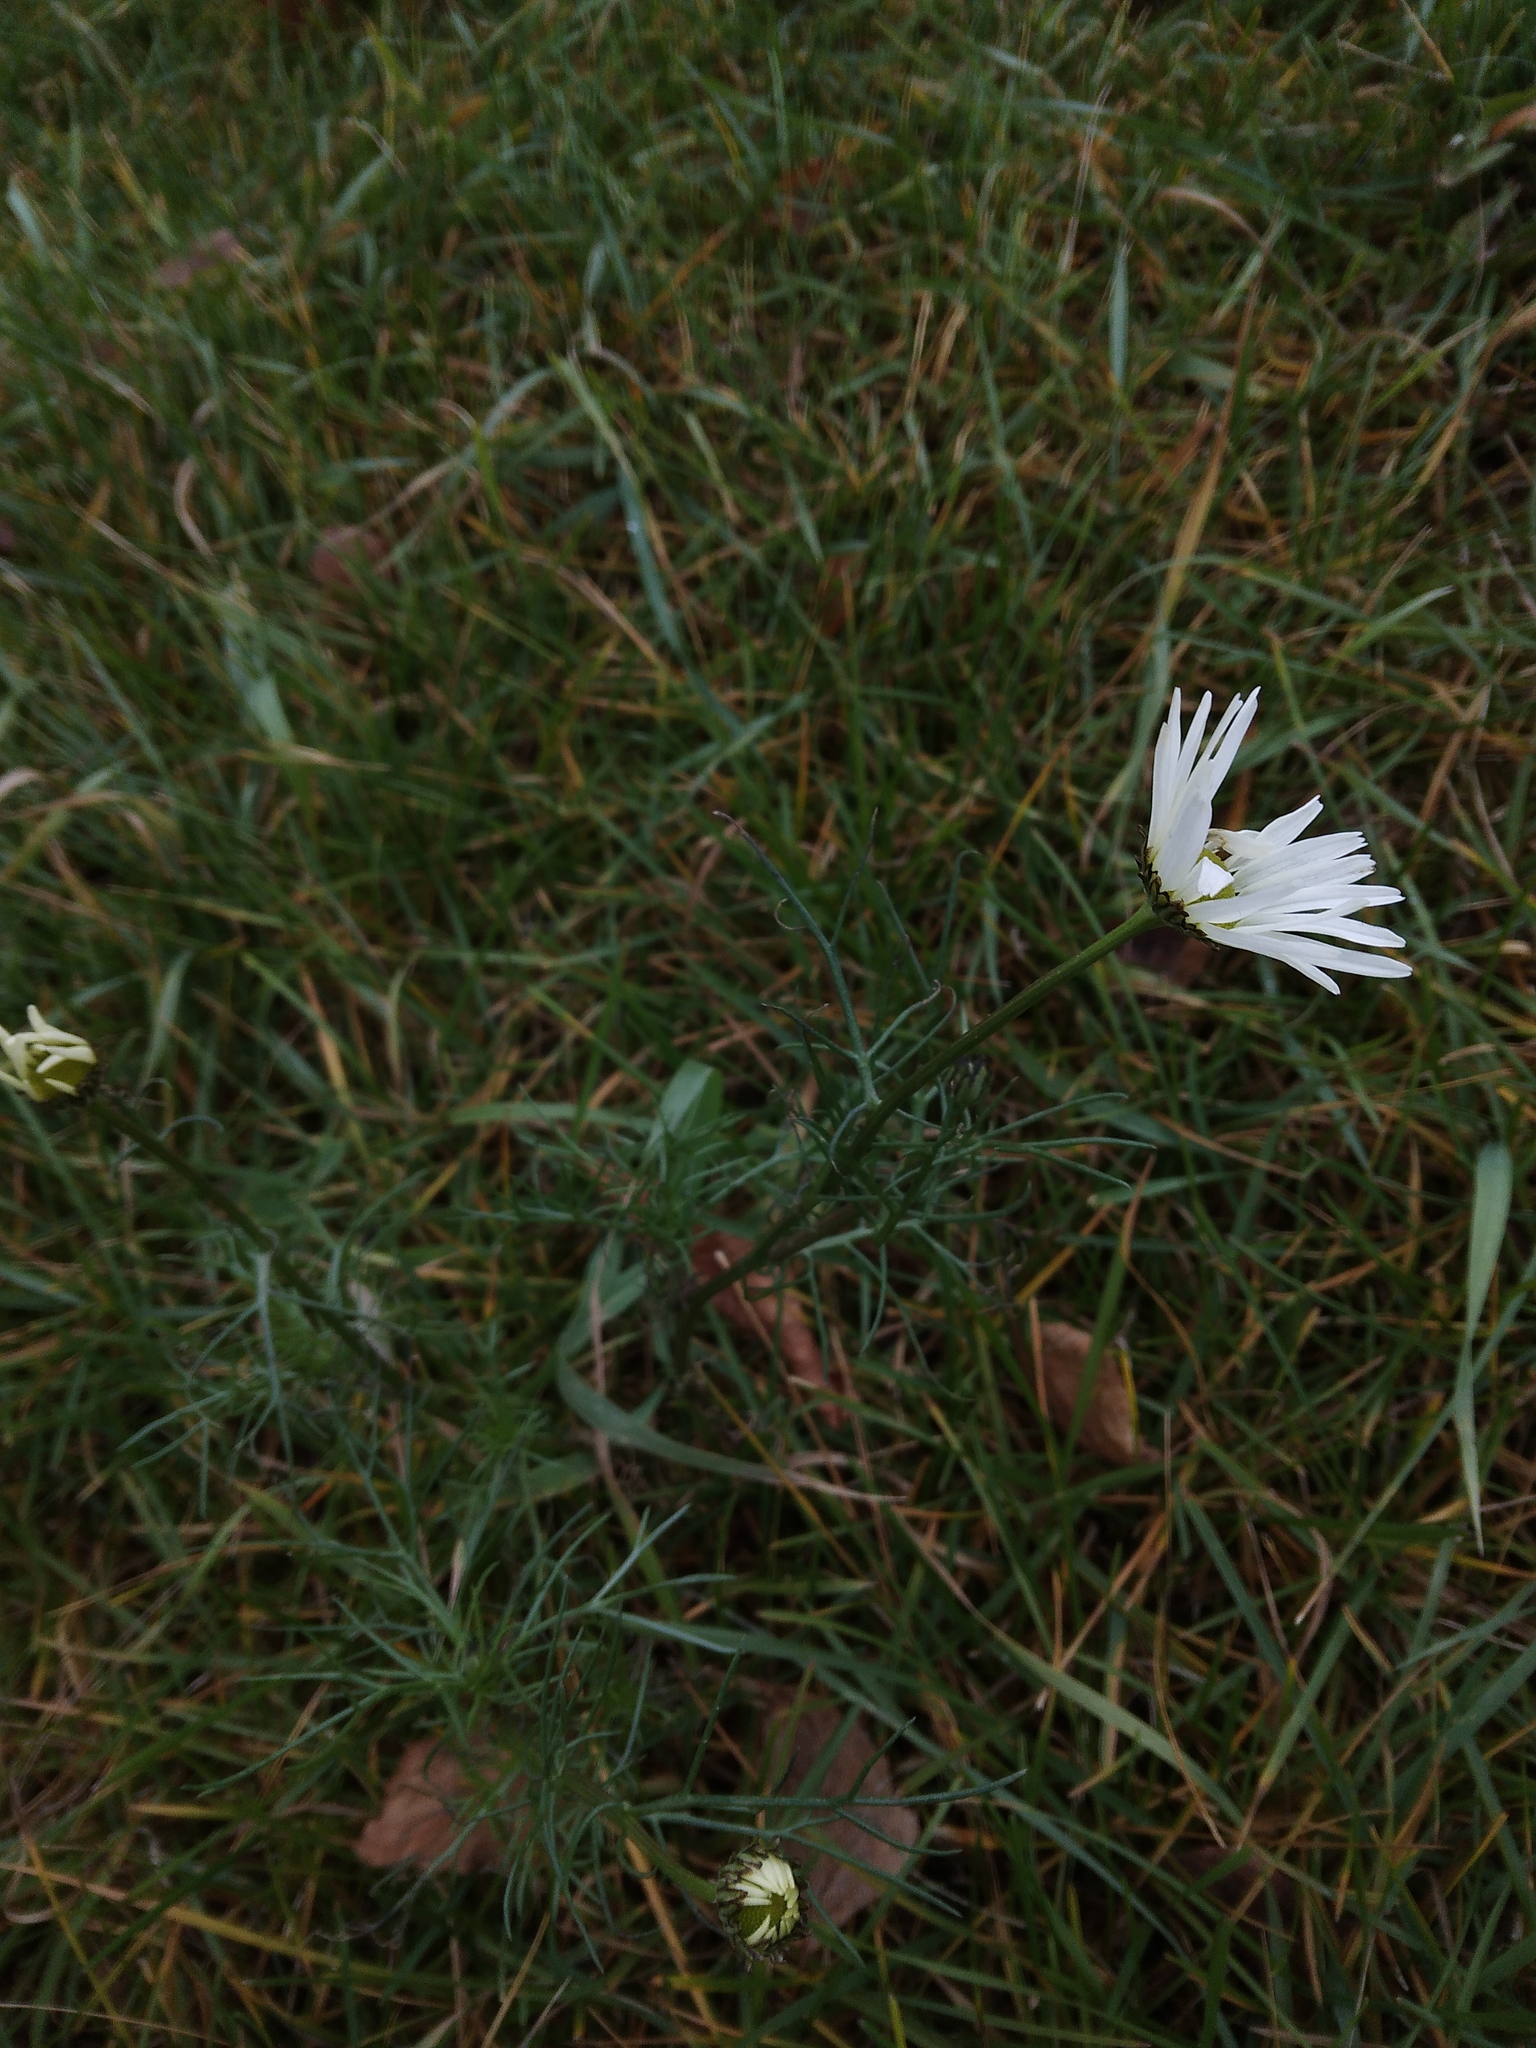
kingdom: Plantae
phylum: Tracheophyta
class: Magnoliopsida
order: Asterales
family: Asteraceae
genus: Tripleurospermum
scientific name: Tripleurospermum inodorum
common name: Scentless mayweed
